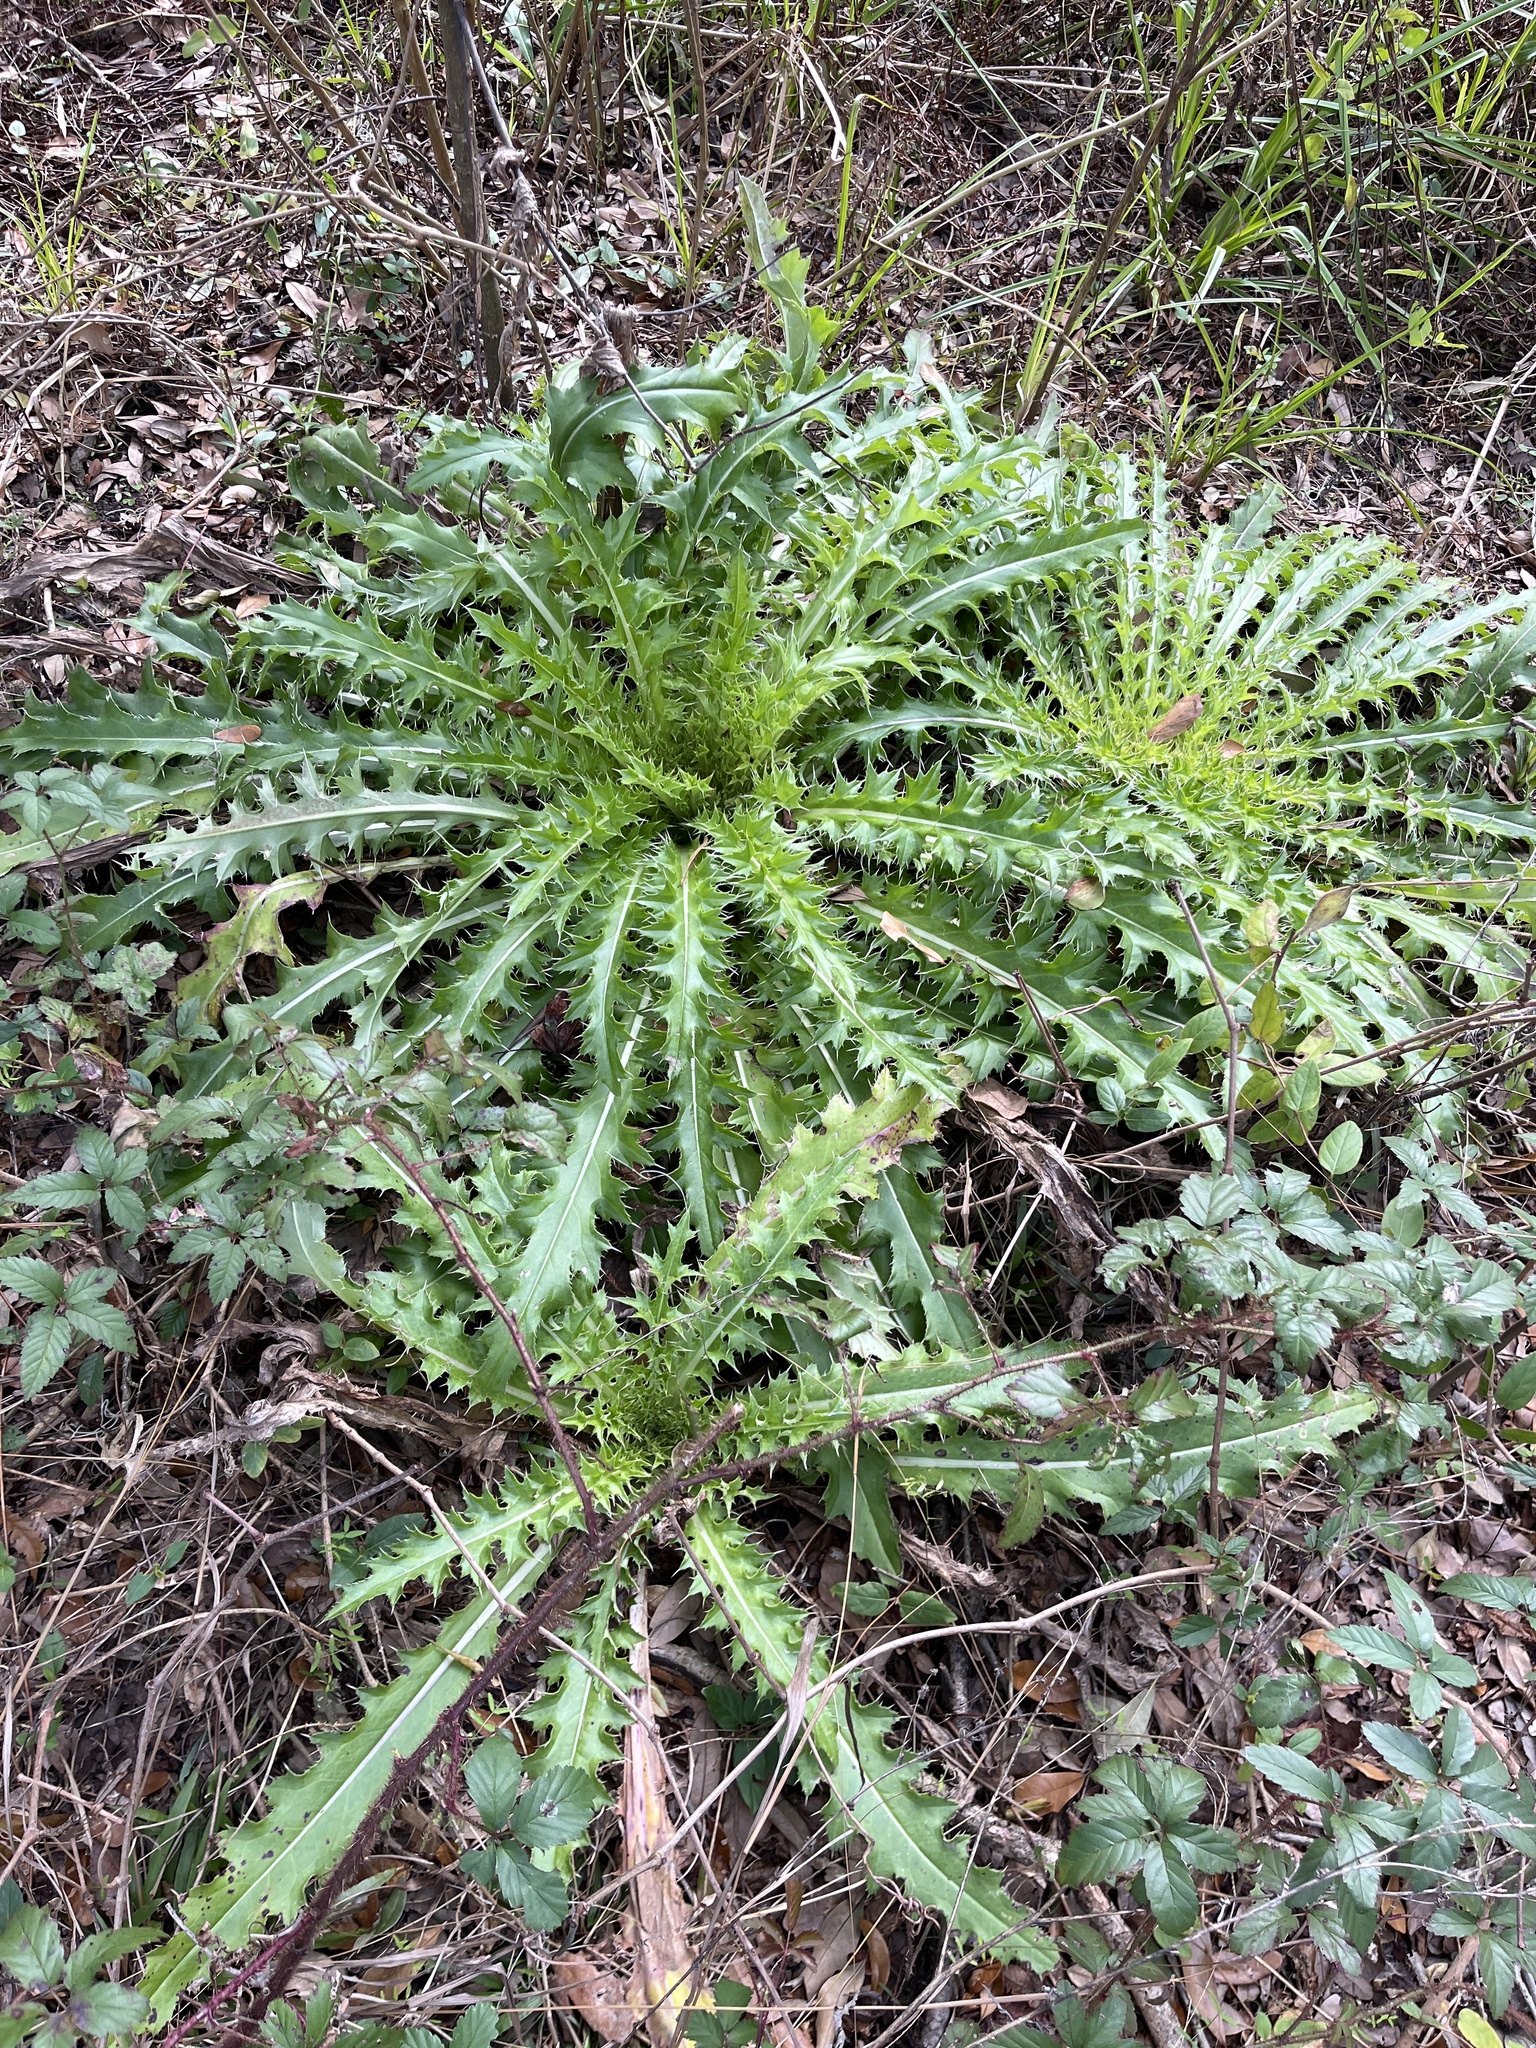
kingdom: Plantae
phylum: Tracheophyta
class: Magnoliopsida
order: Asterales
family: Asteraceae
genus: Cirsium
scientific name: Cirsium horridulum
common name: Bristly thistle
